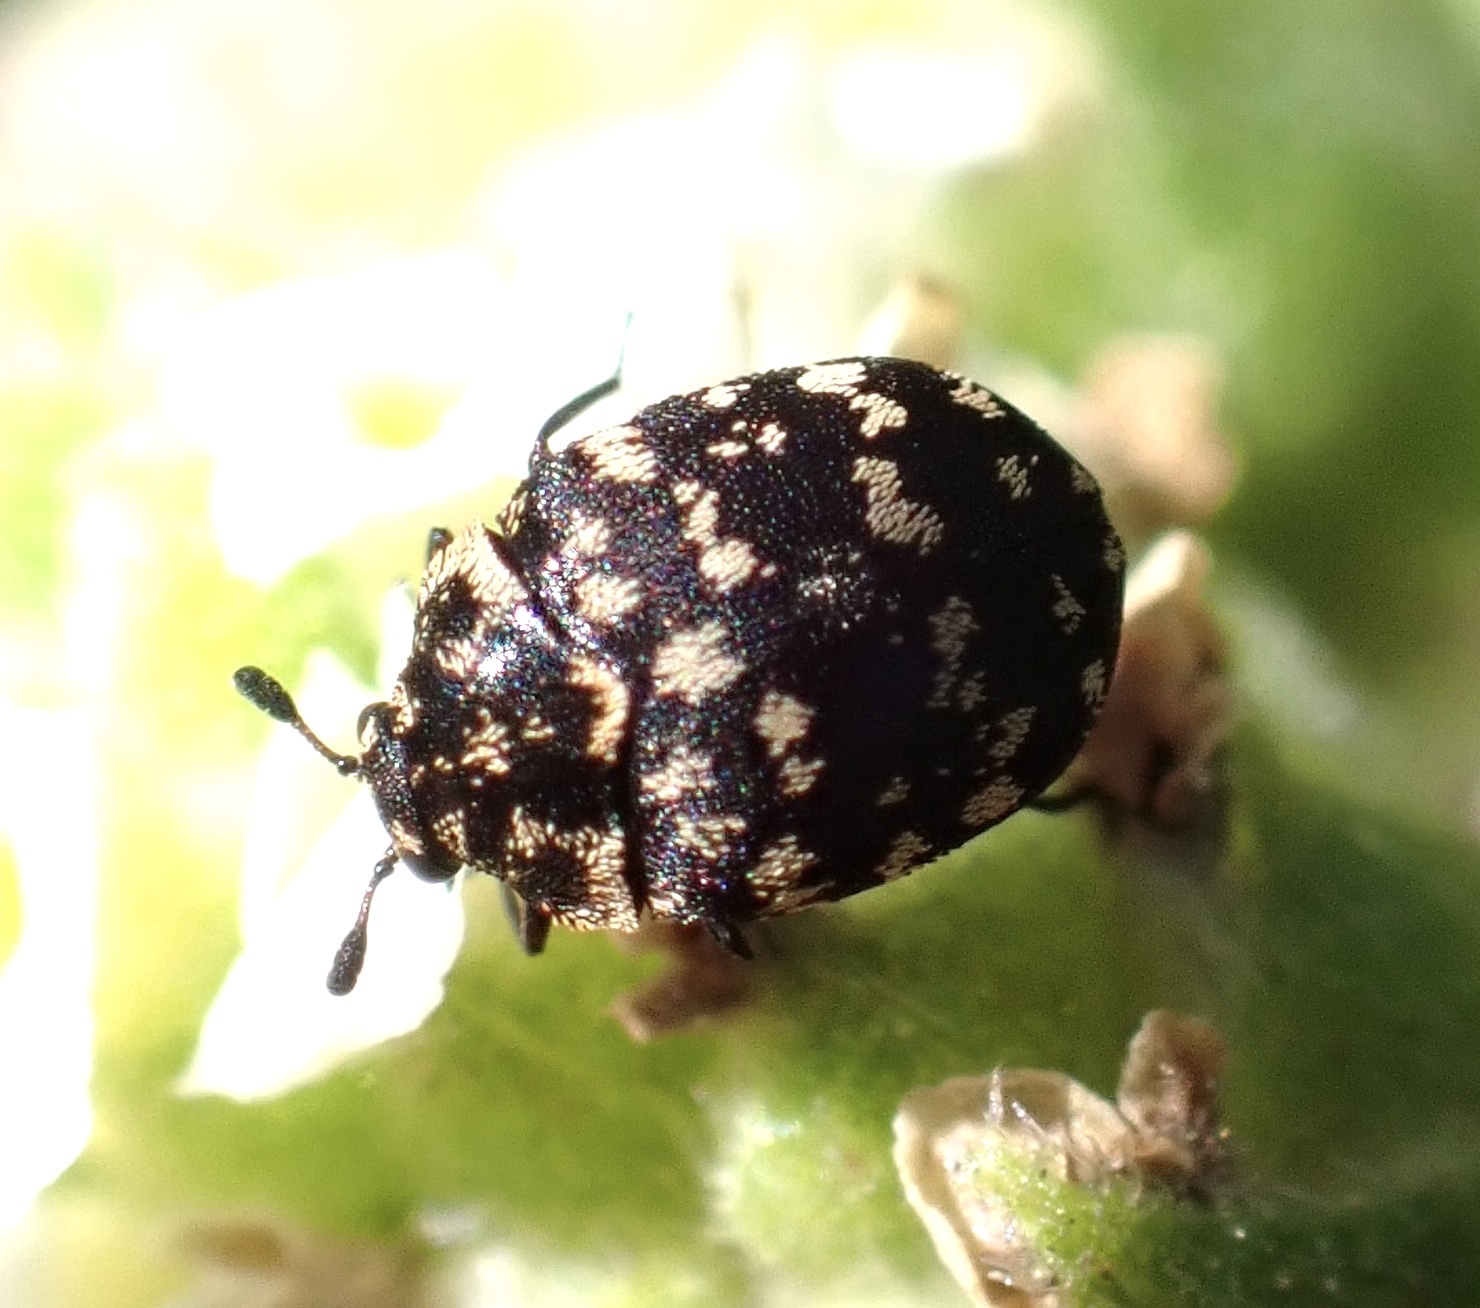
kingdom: Animalia
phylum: Arthropoda
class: Insecta
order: Coleoptera
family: Dermestidae
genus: Anthrenus
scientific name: Anthrenus
